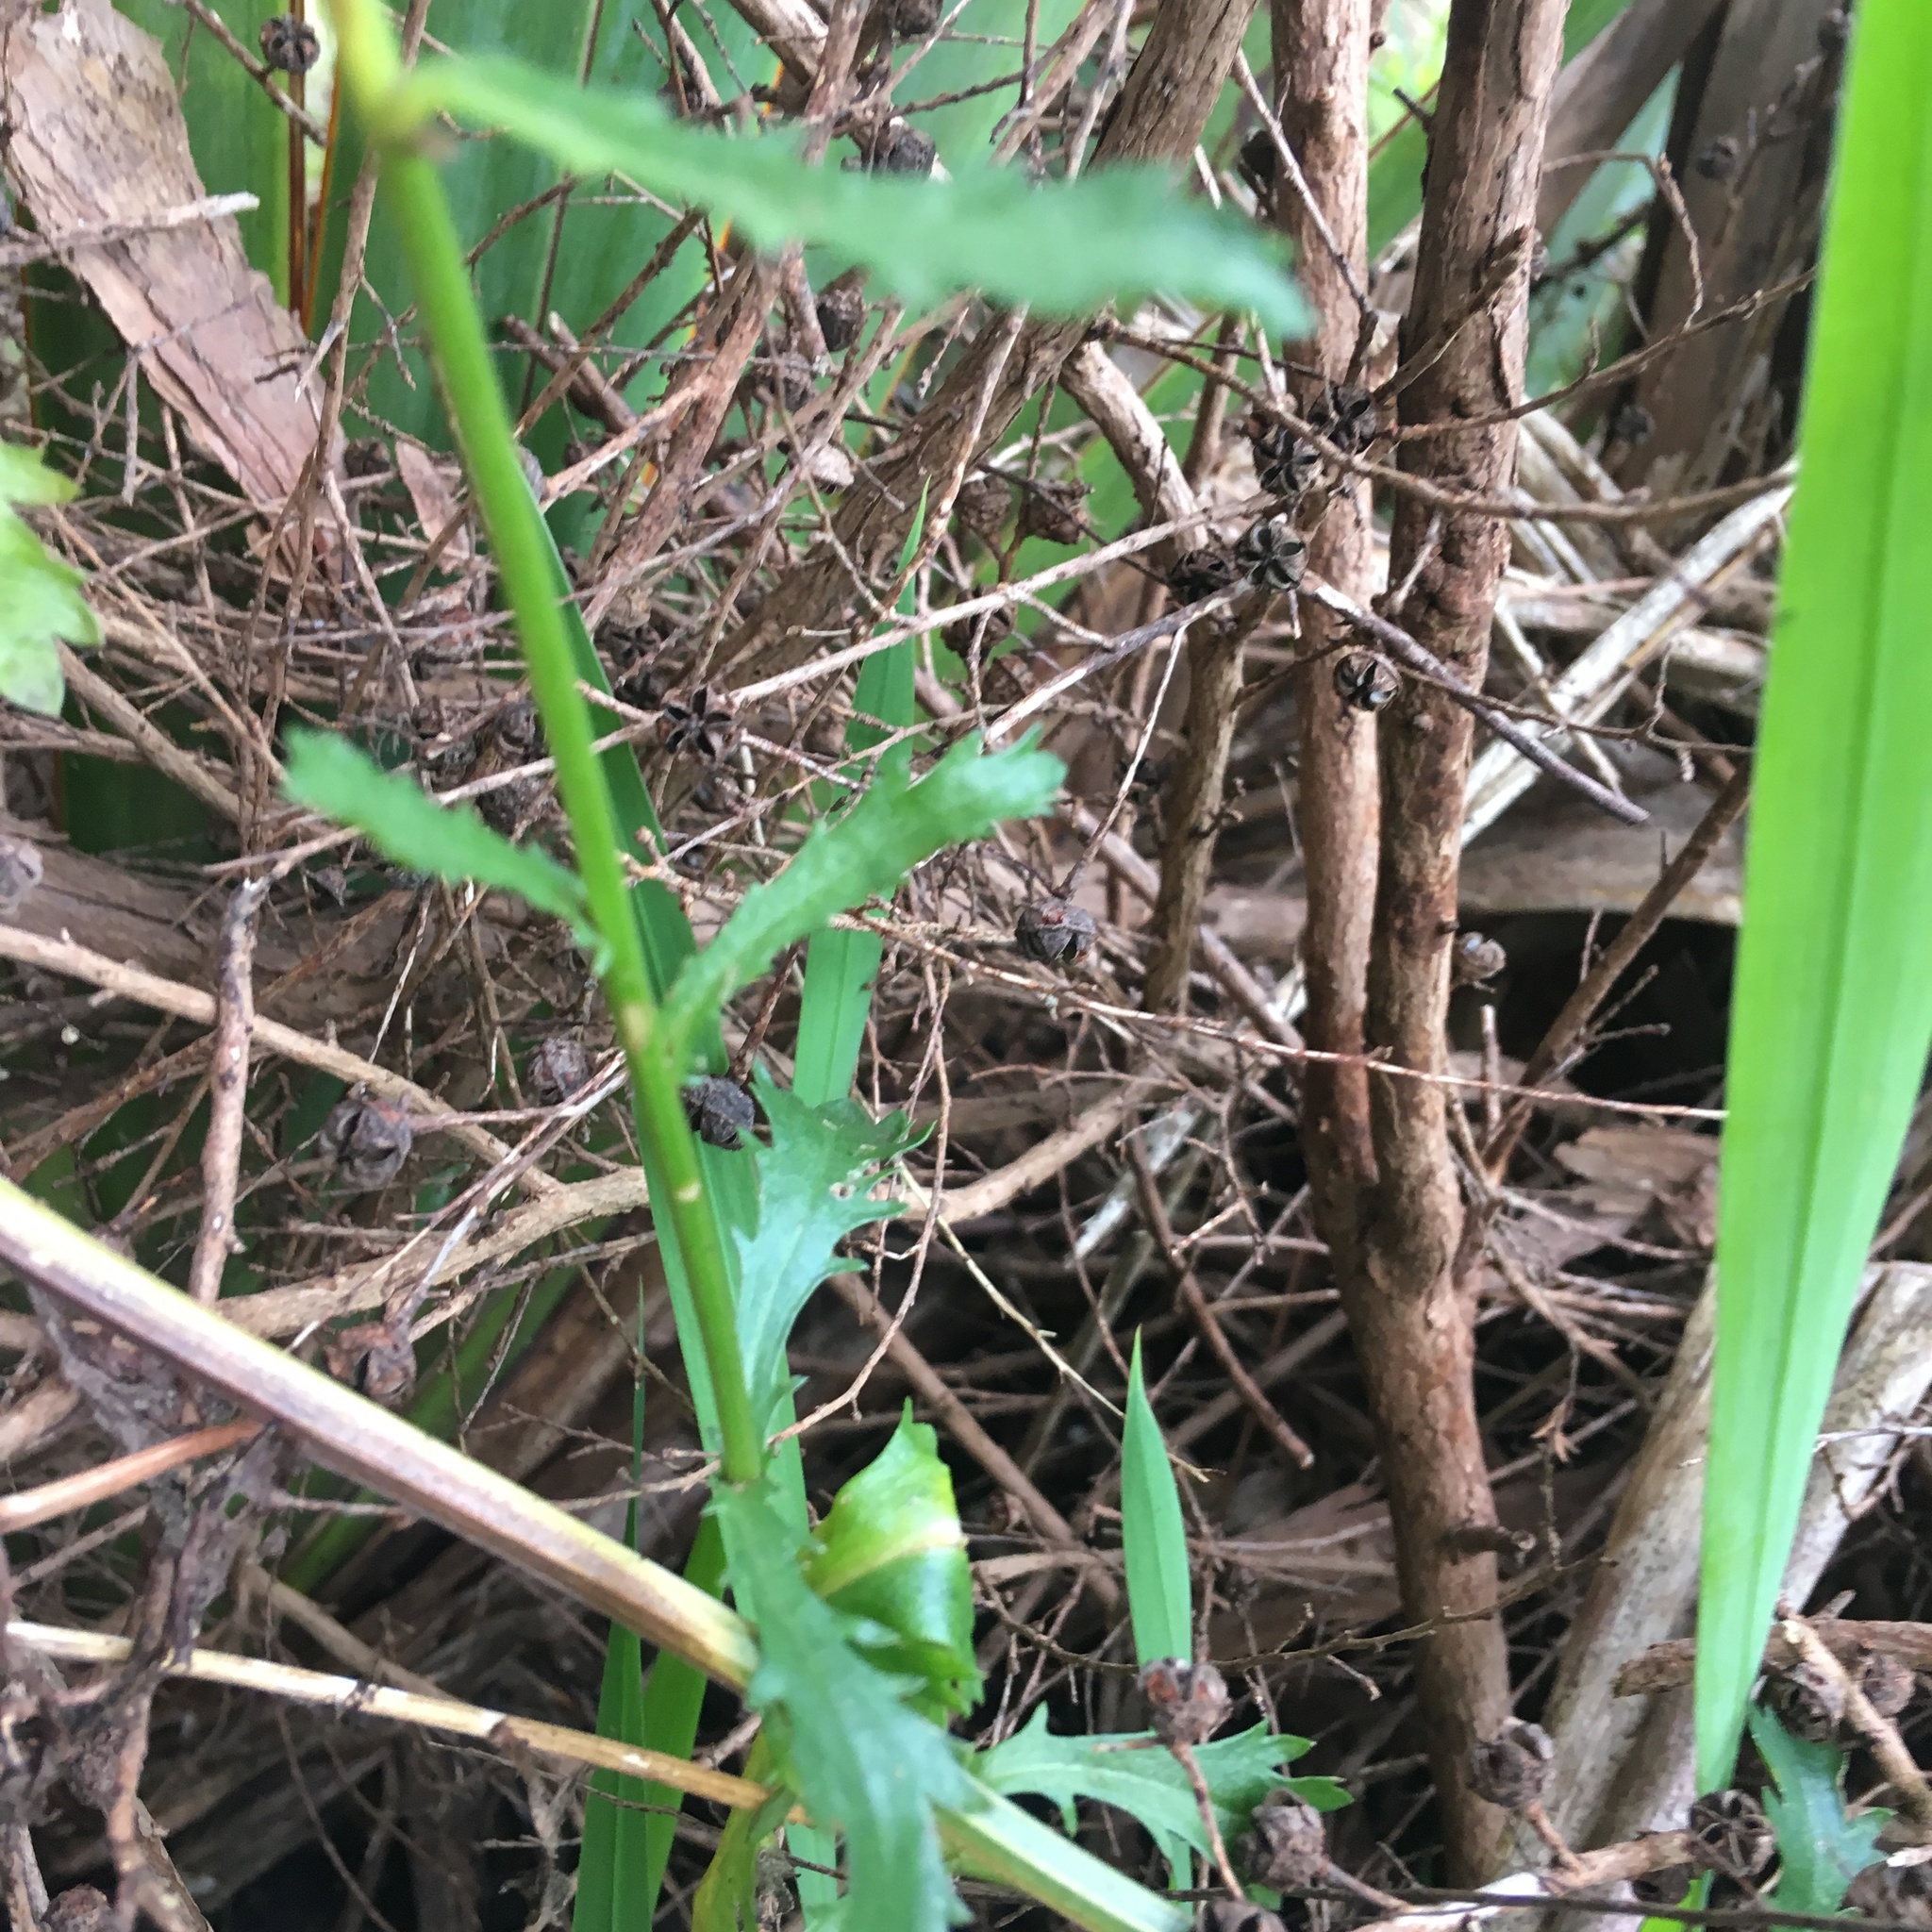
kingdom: Plantae
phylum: Tracheophyta
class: Magnoliopsida
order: Asterales
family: Asteraceae
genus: Leucanthemum
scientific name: Leucanthemum vulgare
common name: Oxeye daisy
